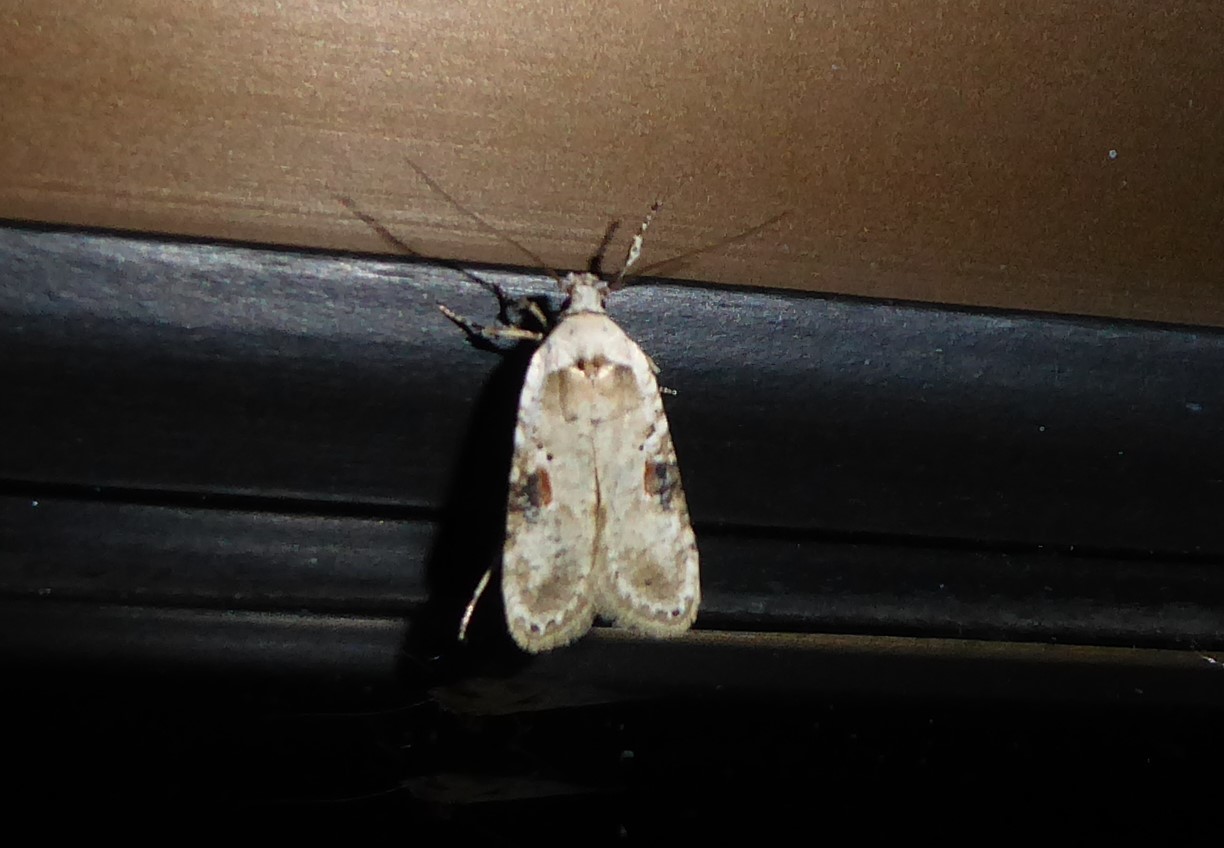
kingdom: Animalia
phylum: Arthropoda
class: Insecta
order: Lepidoptera
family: Depressariidae
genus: Agonopterix
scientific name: Agonopterix alstroemeriana
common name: Moth
